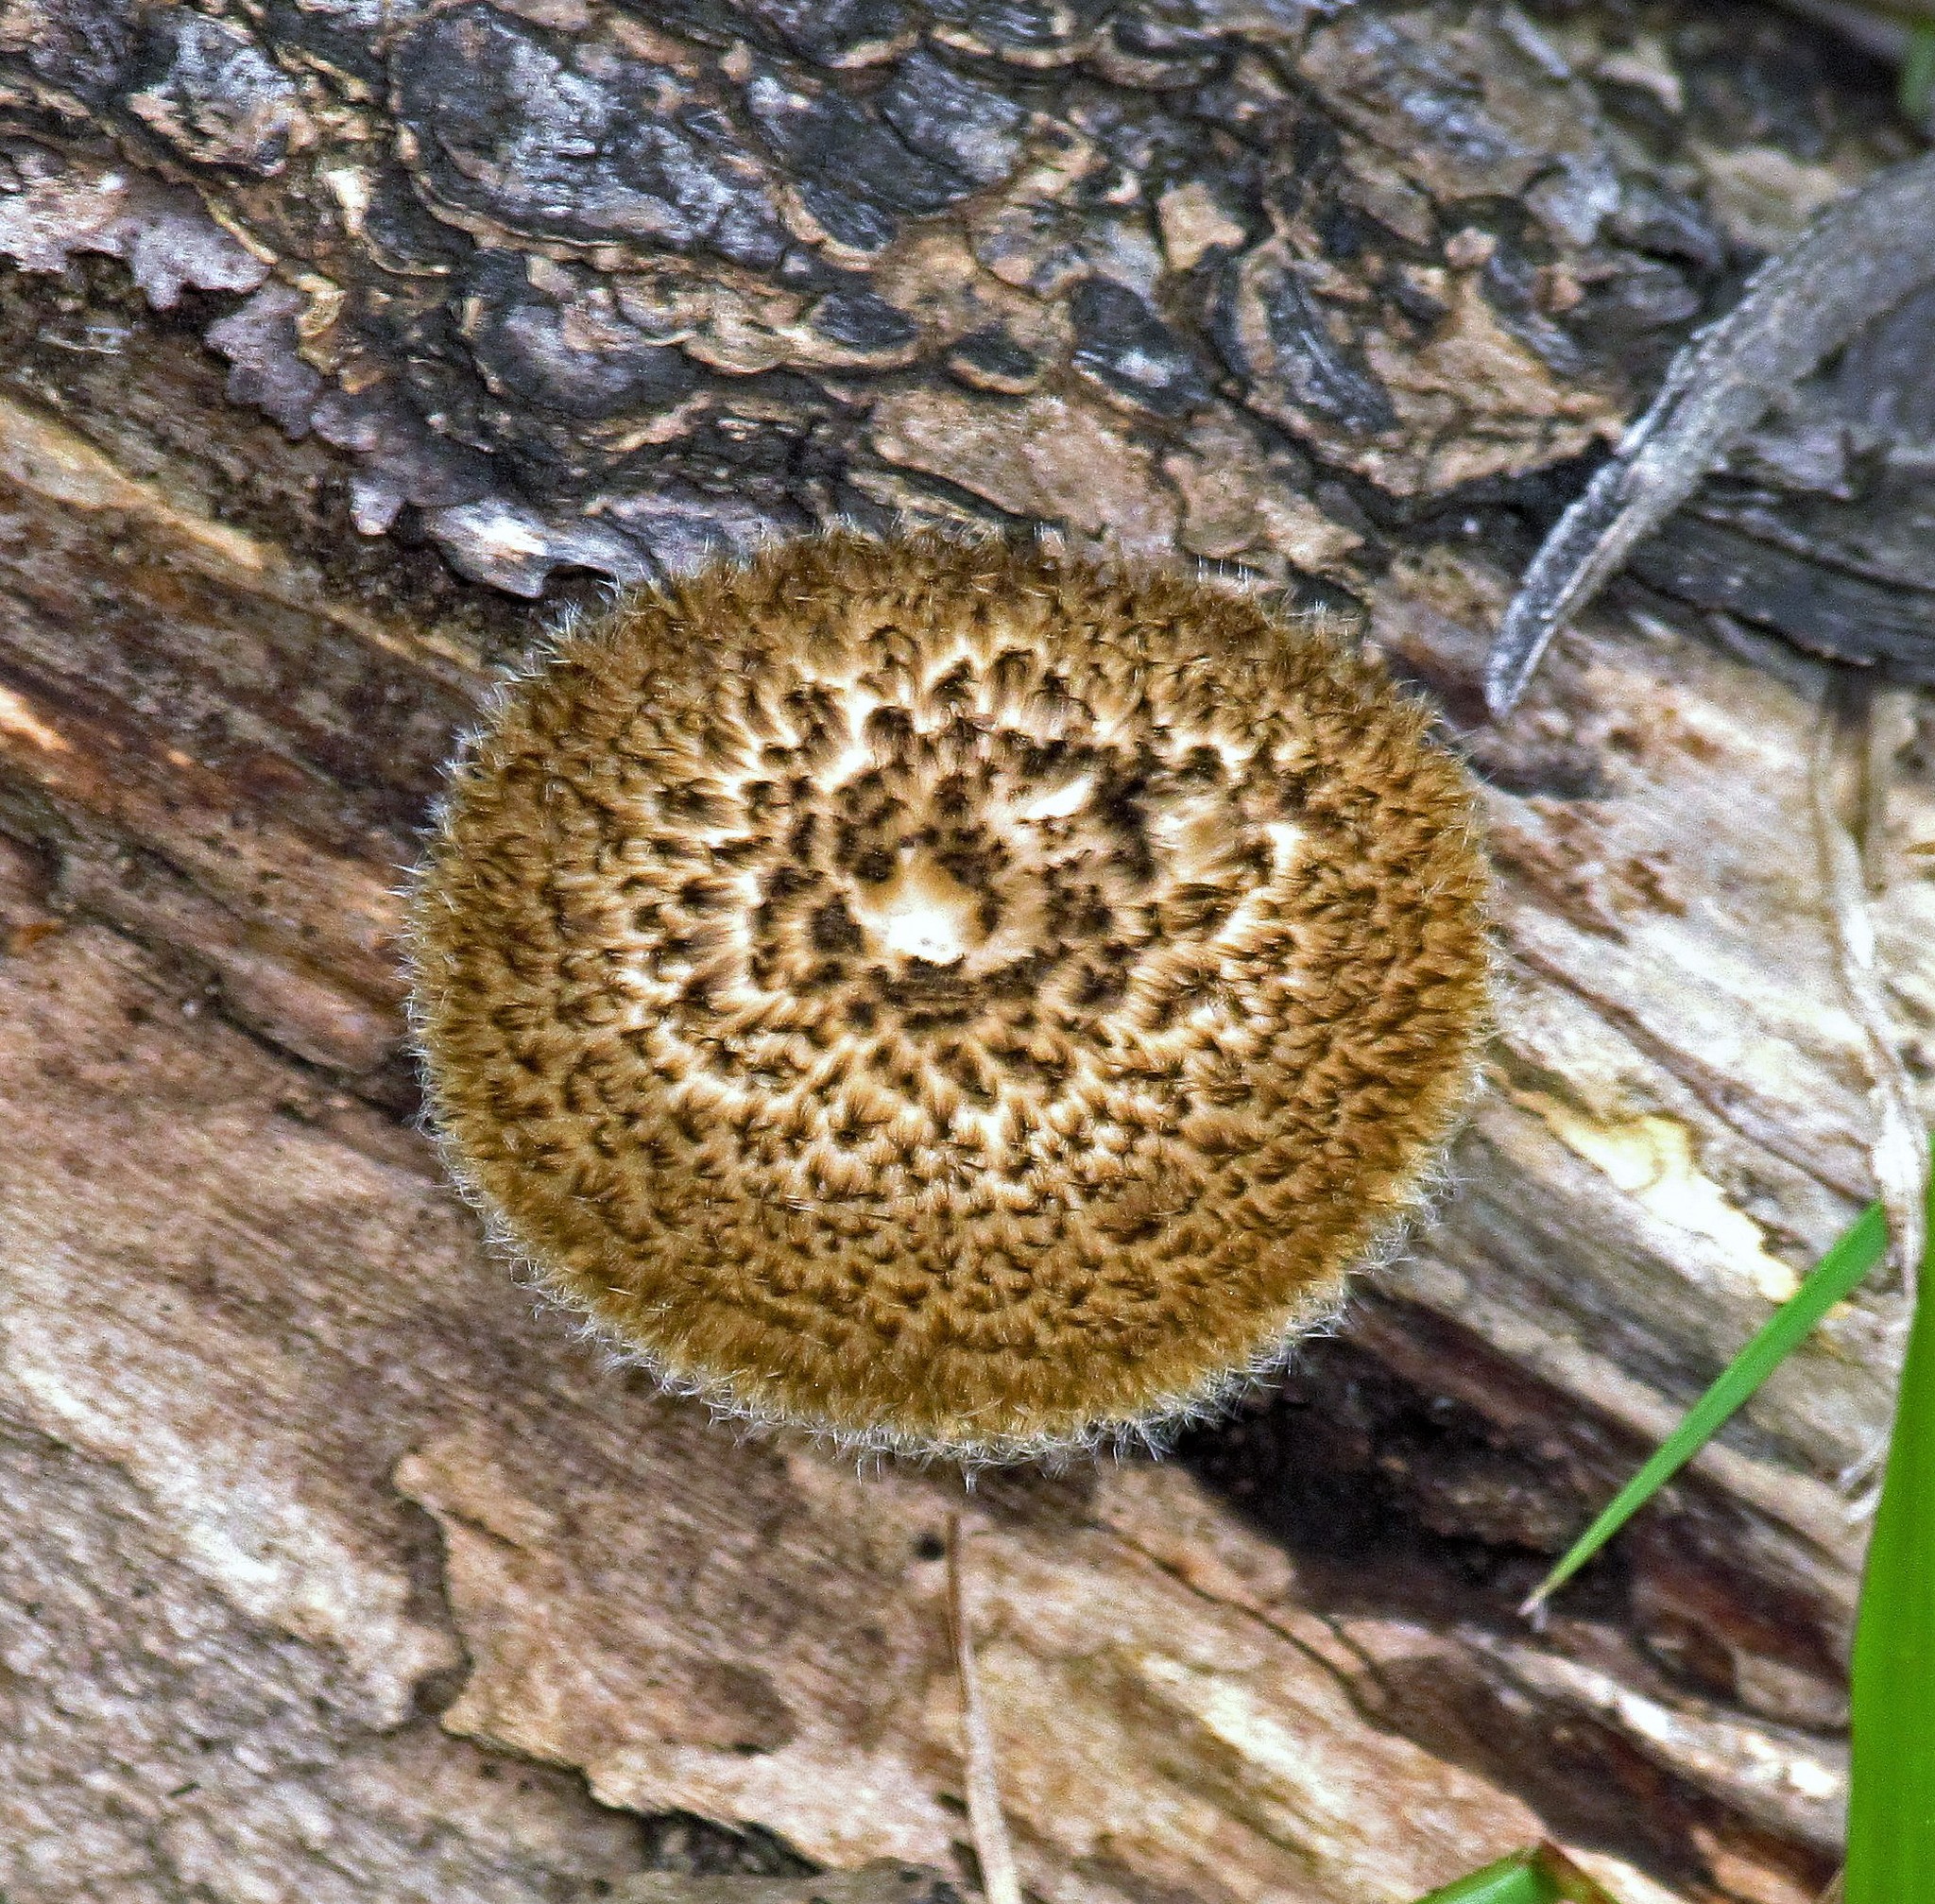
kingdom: Fungi
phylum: Basidiomycota
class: Agaricomycetes
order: Polyporales
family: Polyporaceae
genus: Lentinus
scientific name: Lentinus crinitus
